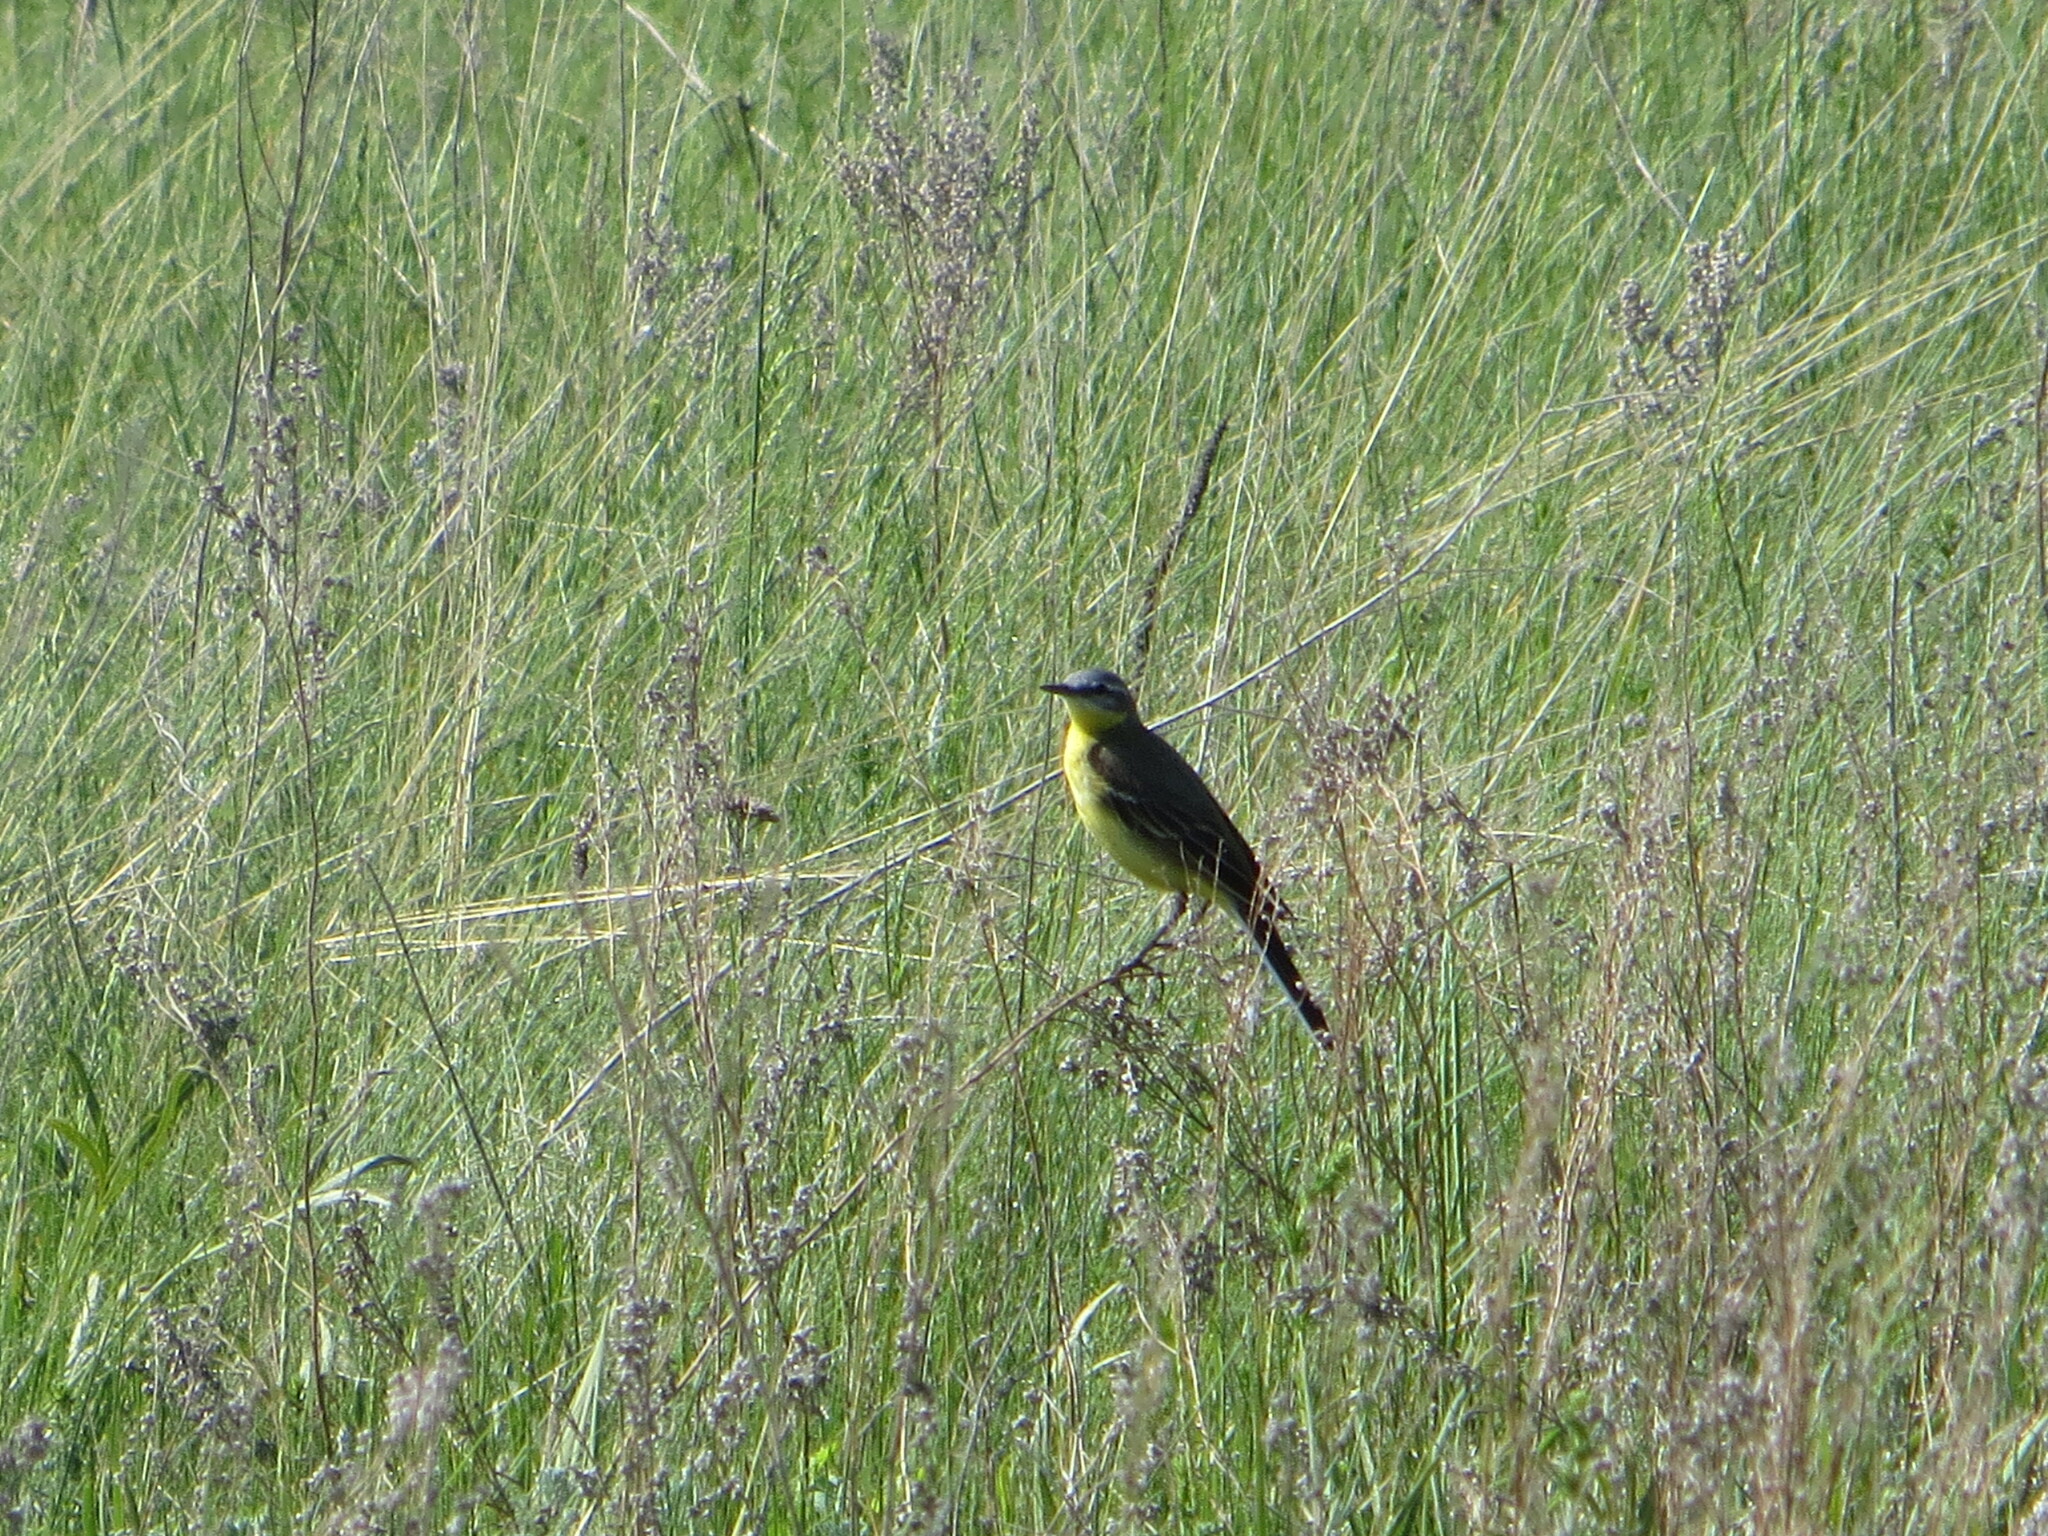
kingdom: Animalia
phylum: Chordata
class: Aves
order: Passeriformes
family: Motacillidae
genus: Motacilla
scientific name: Motacilla flava
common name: Western yellow wagtail
